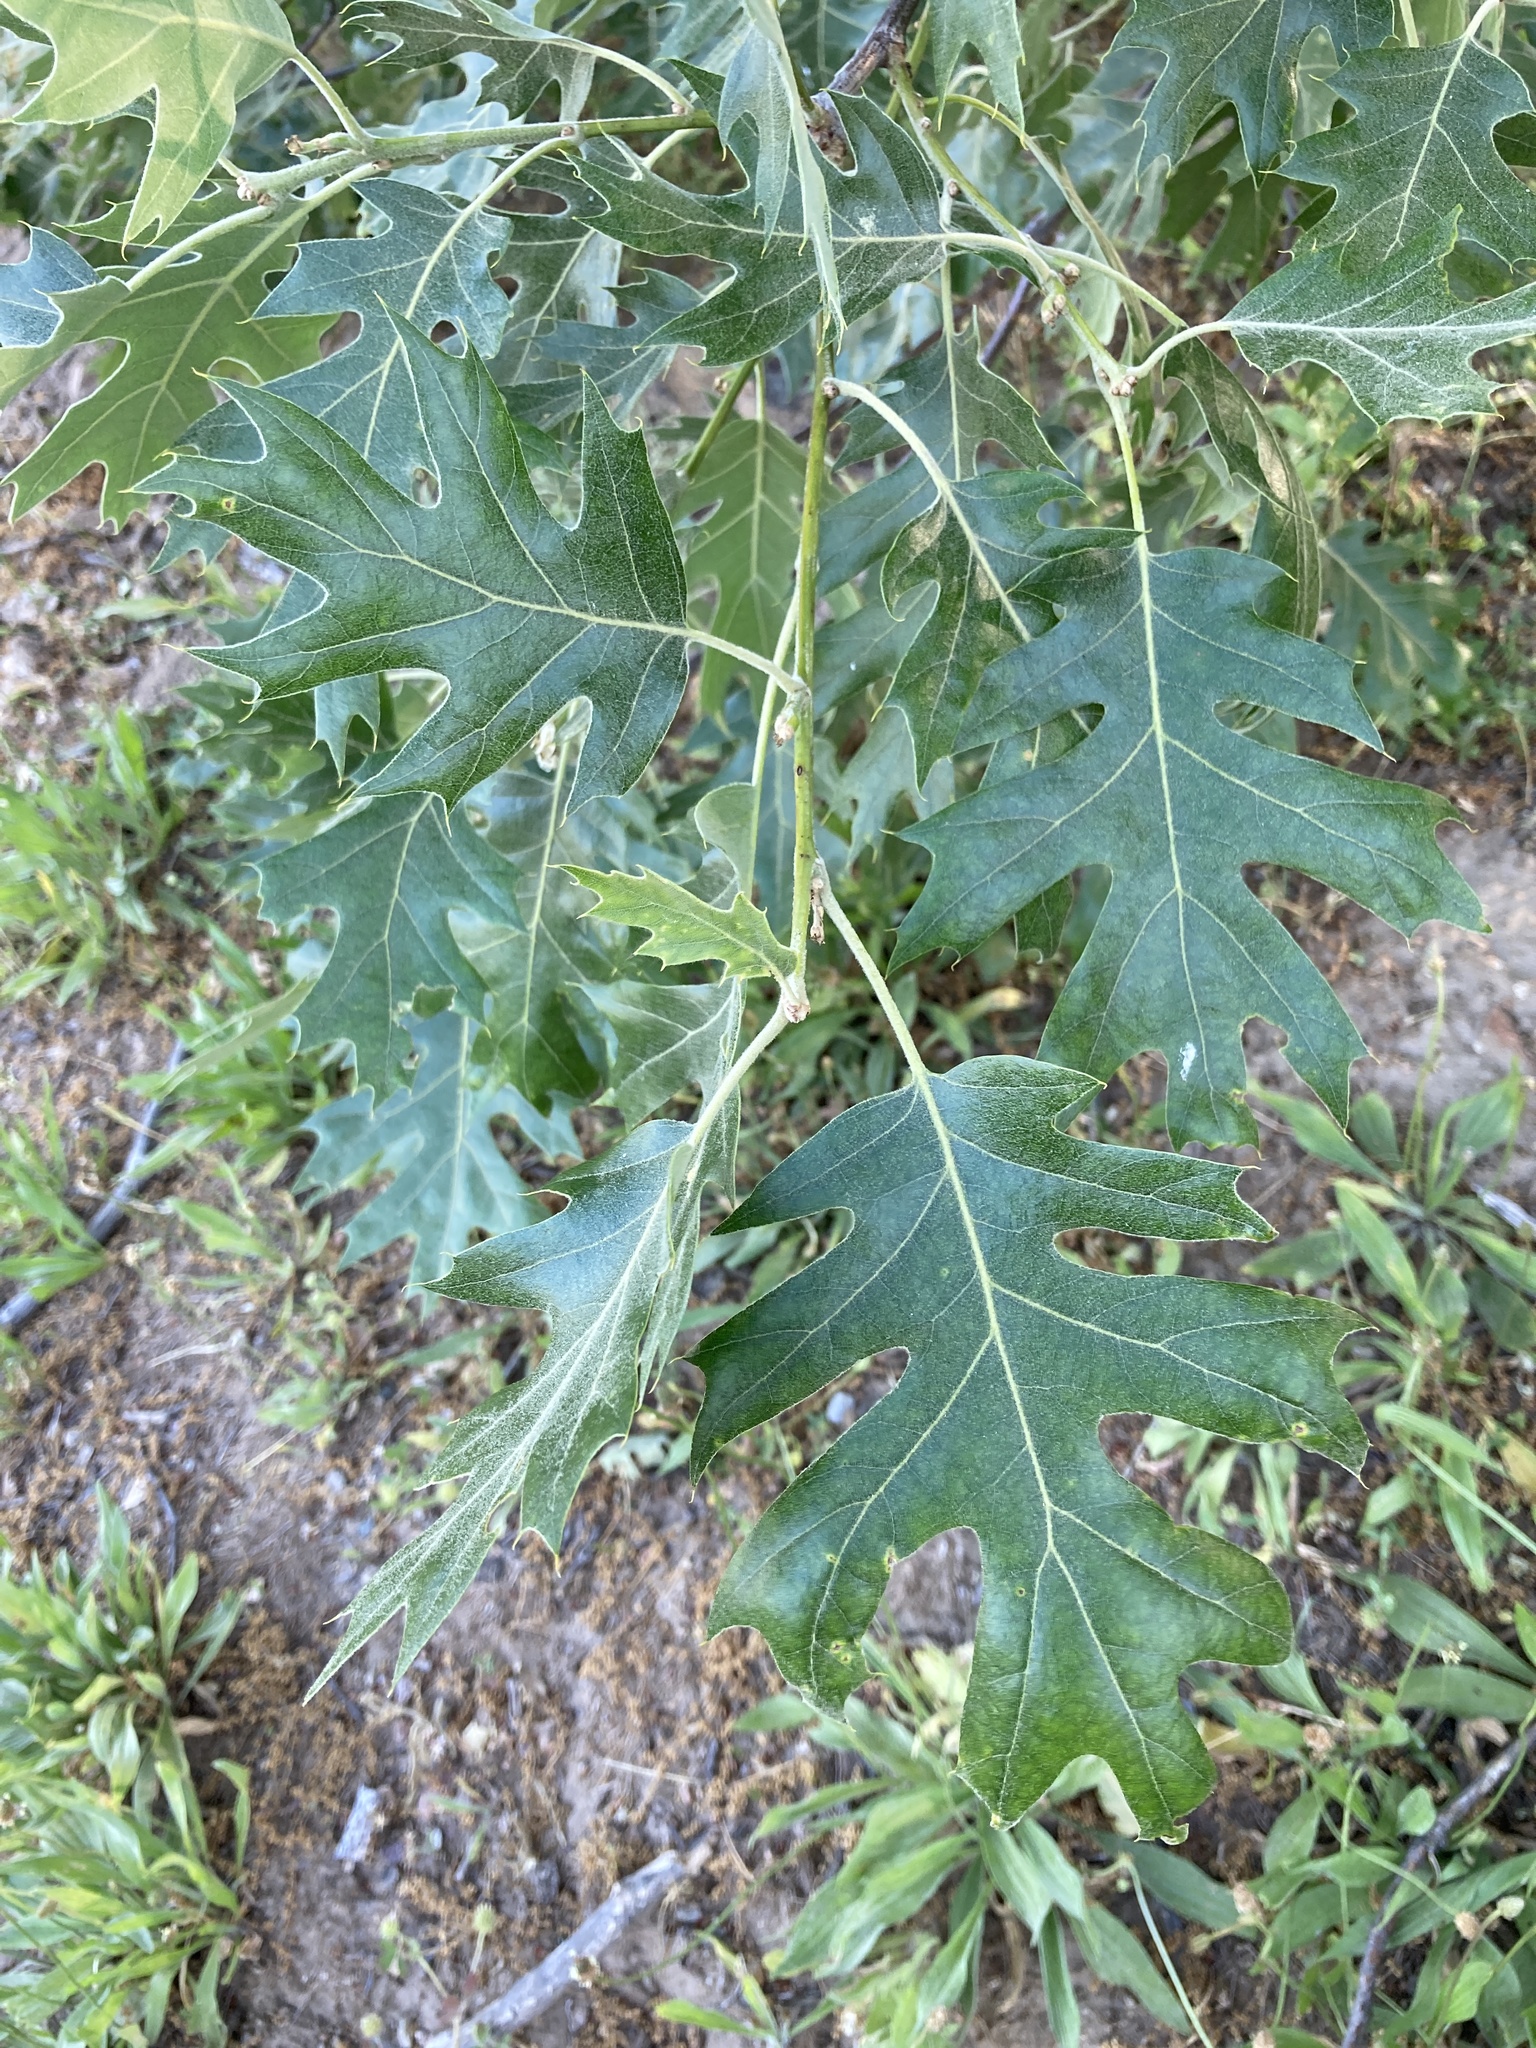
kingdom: Plantae
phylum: Tracheophyta
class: Magnoliopsida
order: Fagales
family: Fagaceae
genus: Quercus
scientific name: Quercus kelloggii
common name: California black oak
